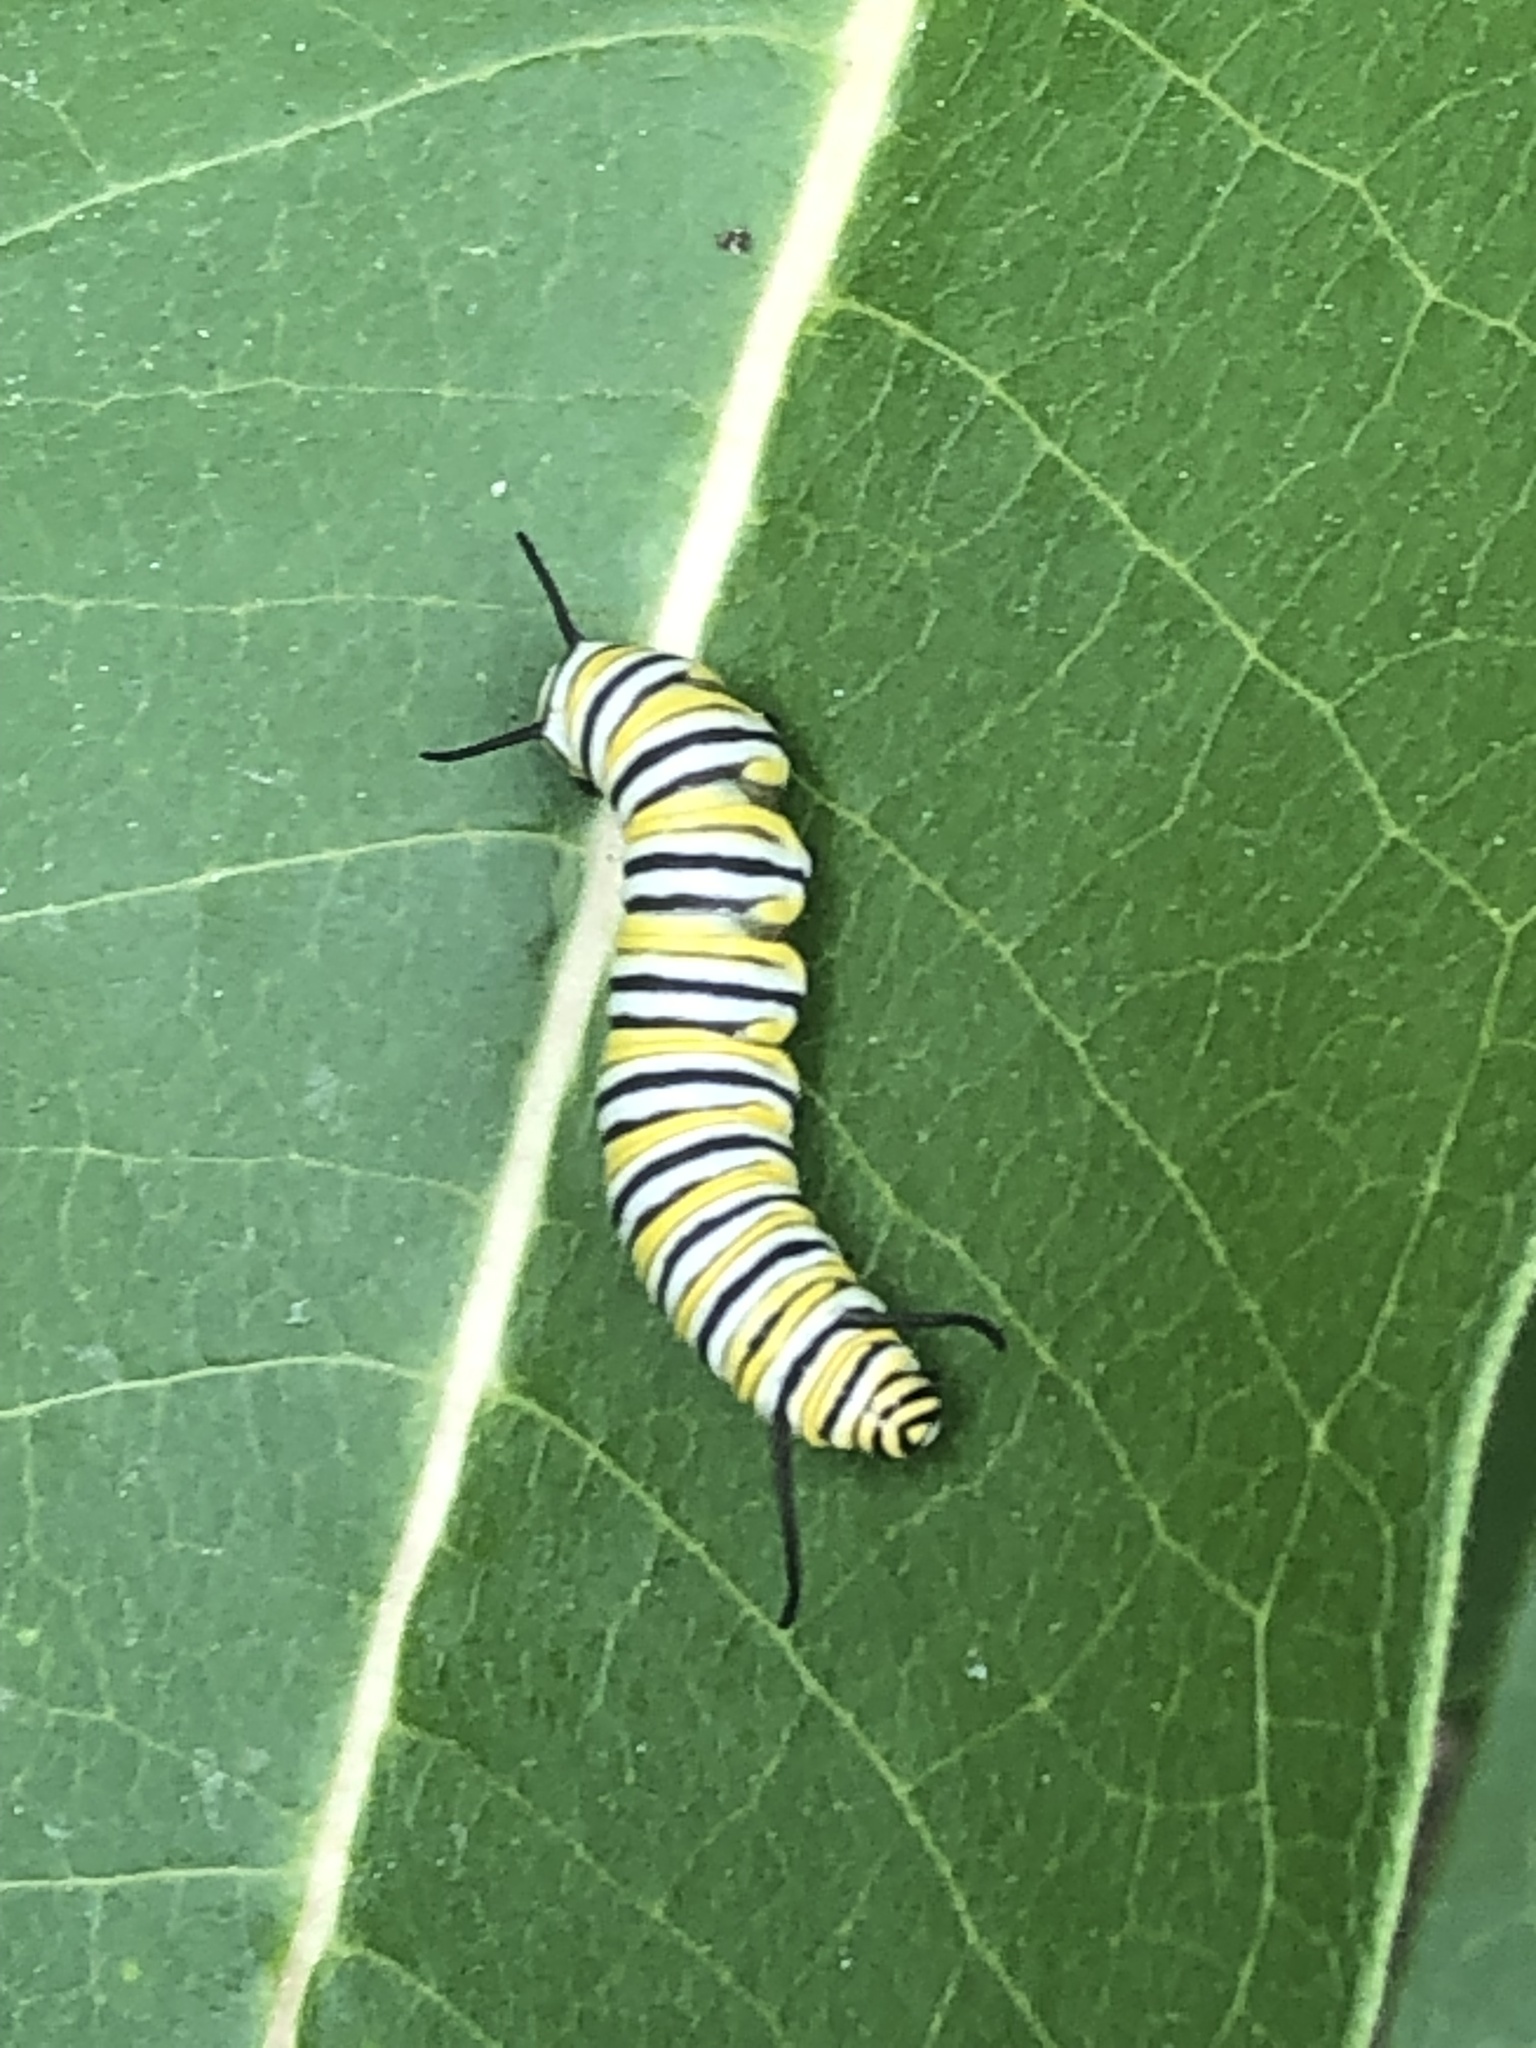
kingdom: Animalia
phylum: Arthropoda
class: Insecta
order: Lepidoptera
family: Nymphalidae
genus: Danaus
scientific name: Danaus plexippus
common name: Monarch
